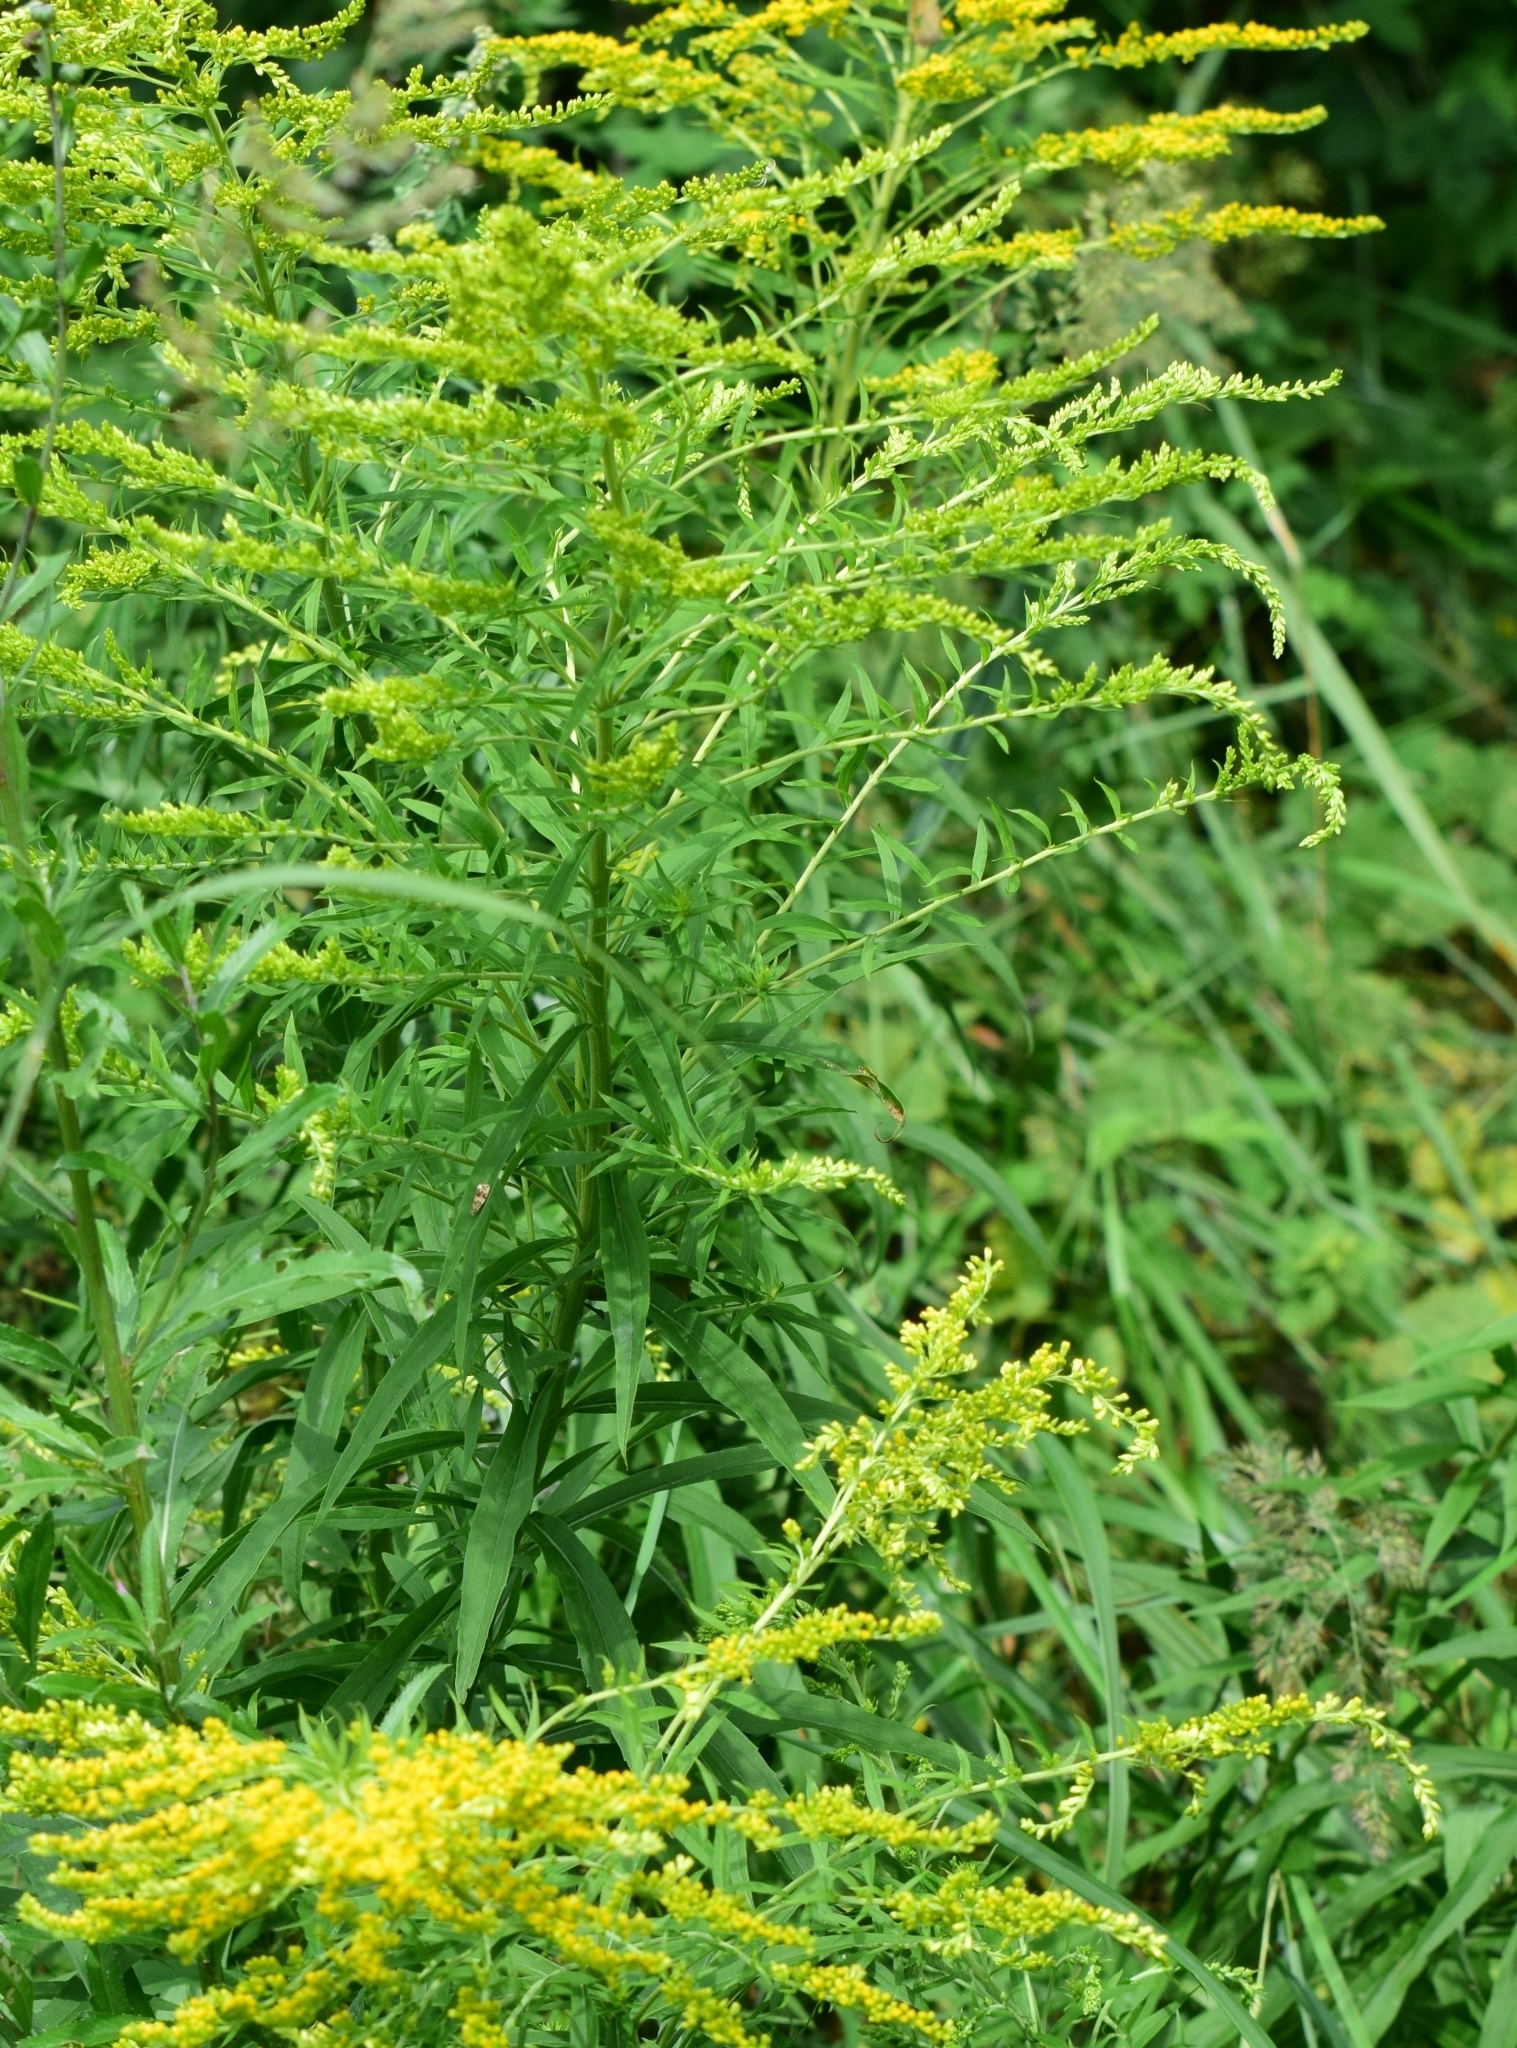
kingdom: Plantae
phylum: Tracheophyta
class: Magnoliopsida
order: Asterales
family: Asteraceae
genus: Solidago
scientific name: Solidago canadensis
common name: Canada goldenrod
